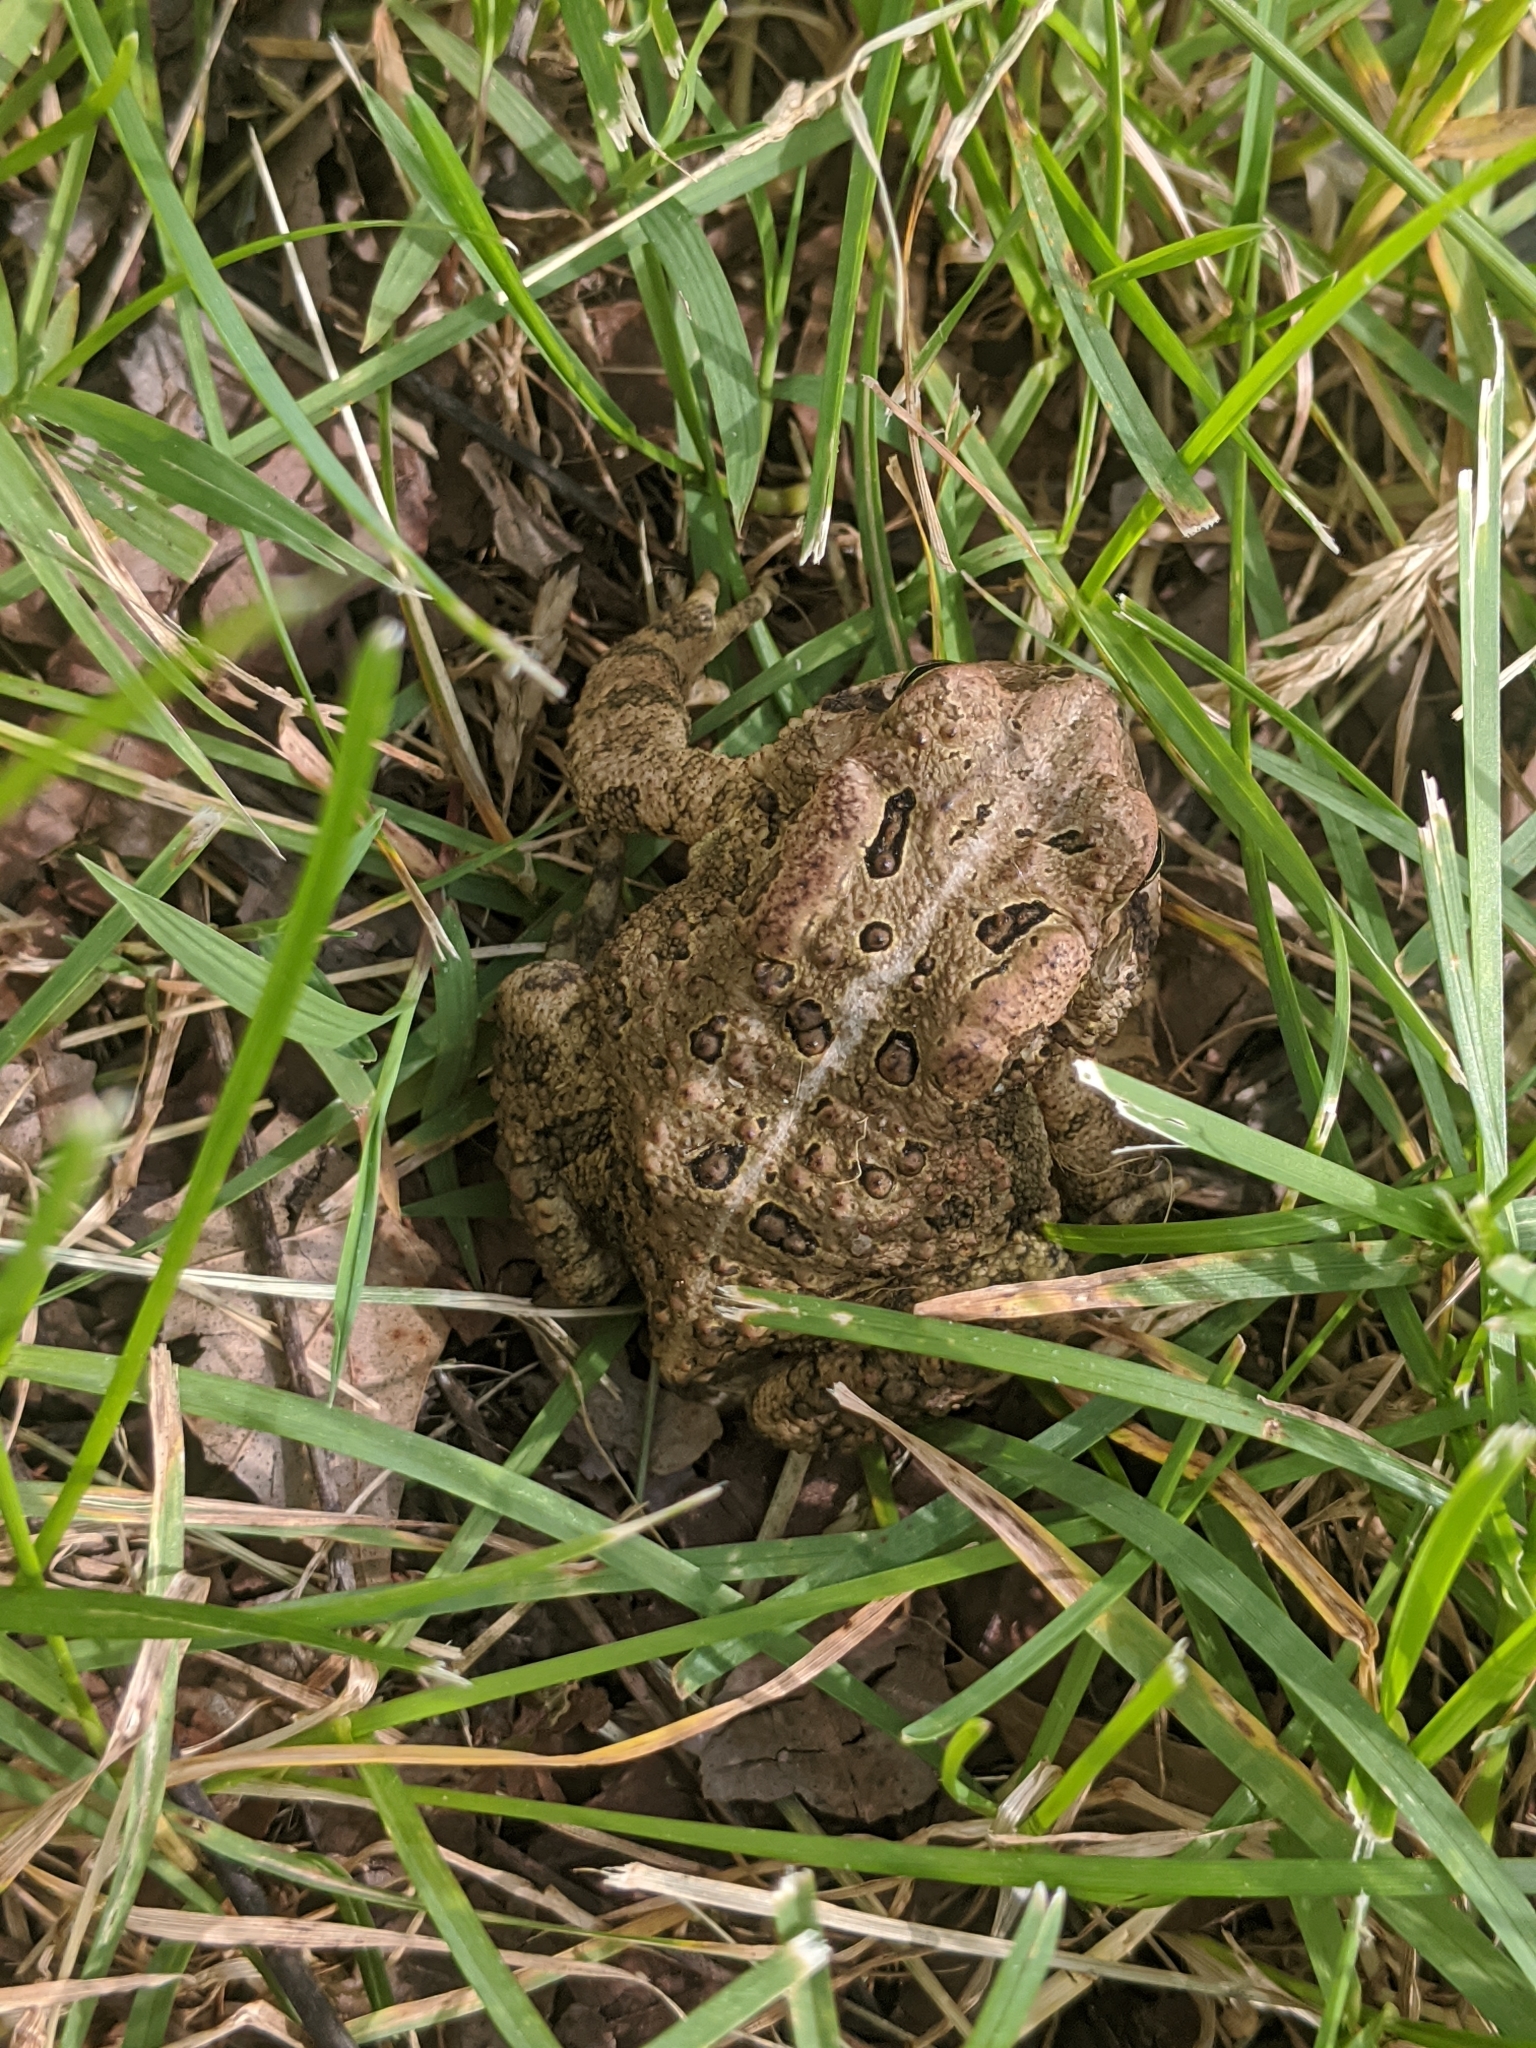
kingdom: Animalia
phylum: Chordata
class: Amphibia
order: Anura
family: Bufonidae
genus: Anaxyrus
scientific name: Anaxyrus americanus
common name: American toad
